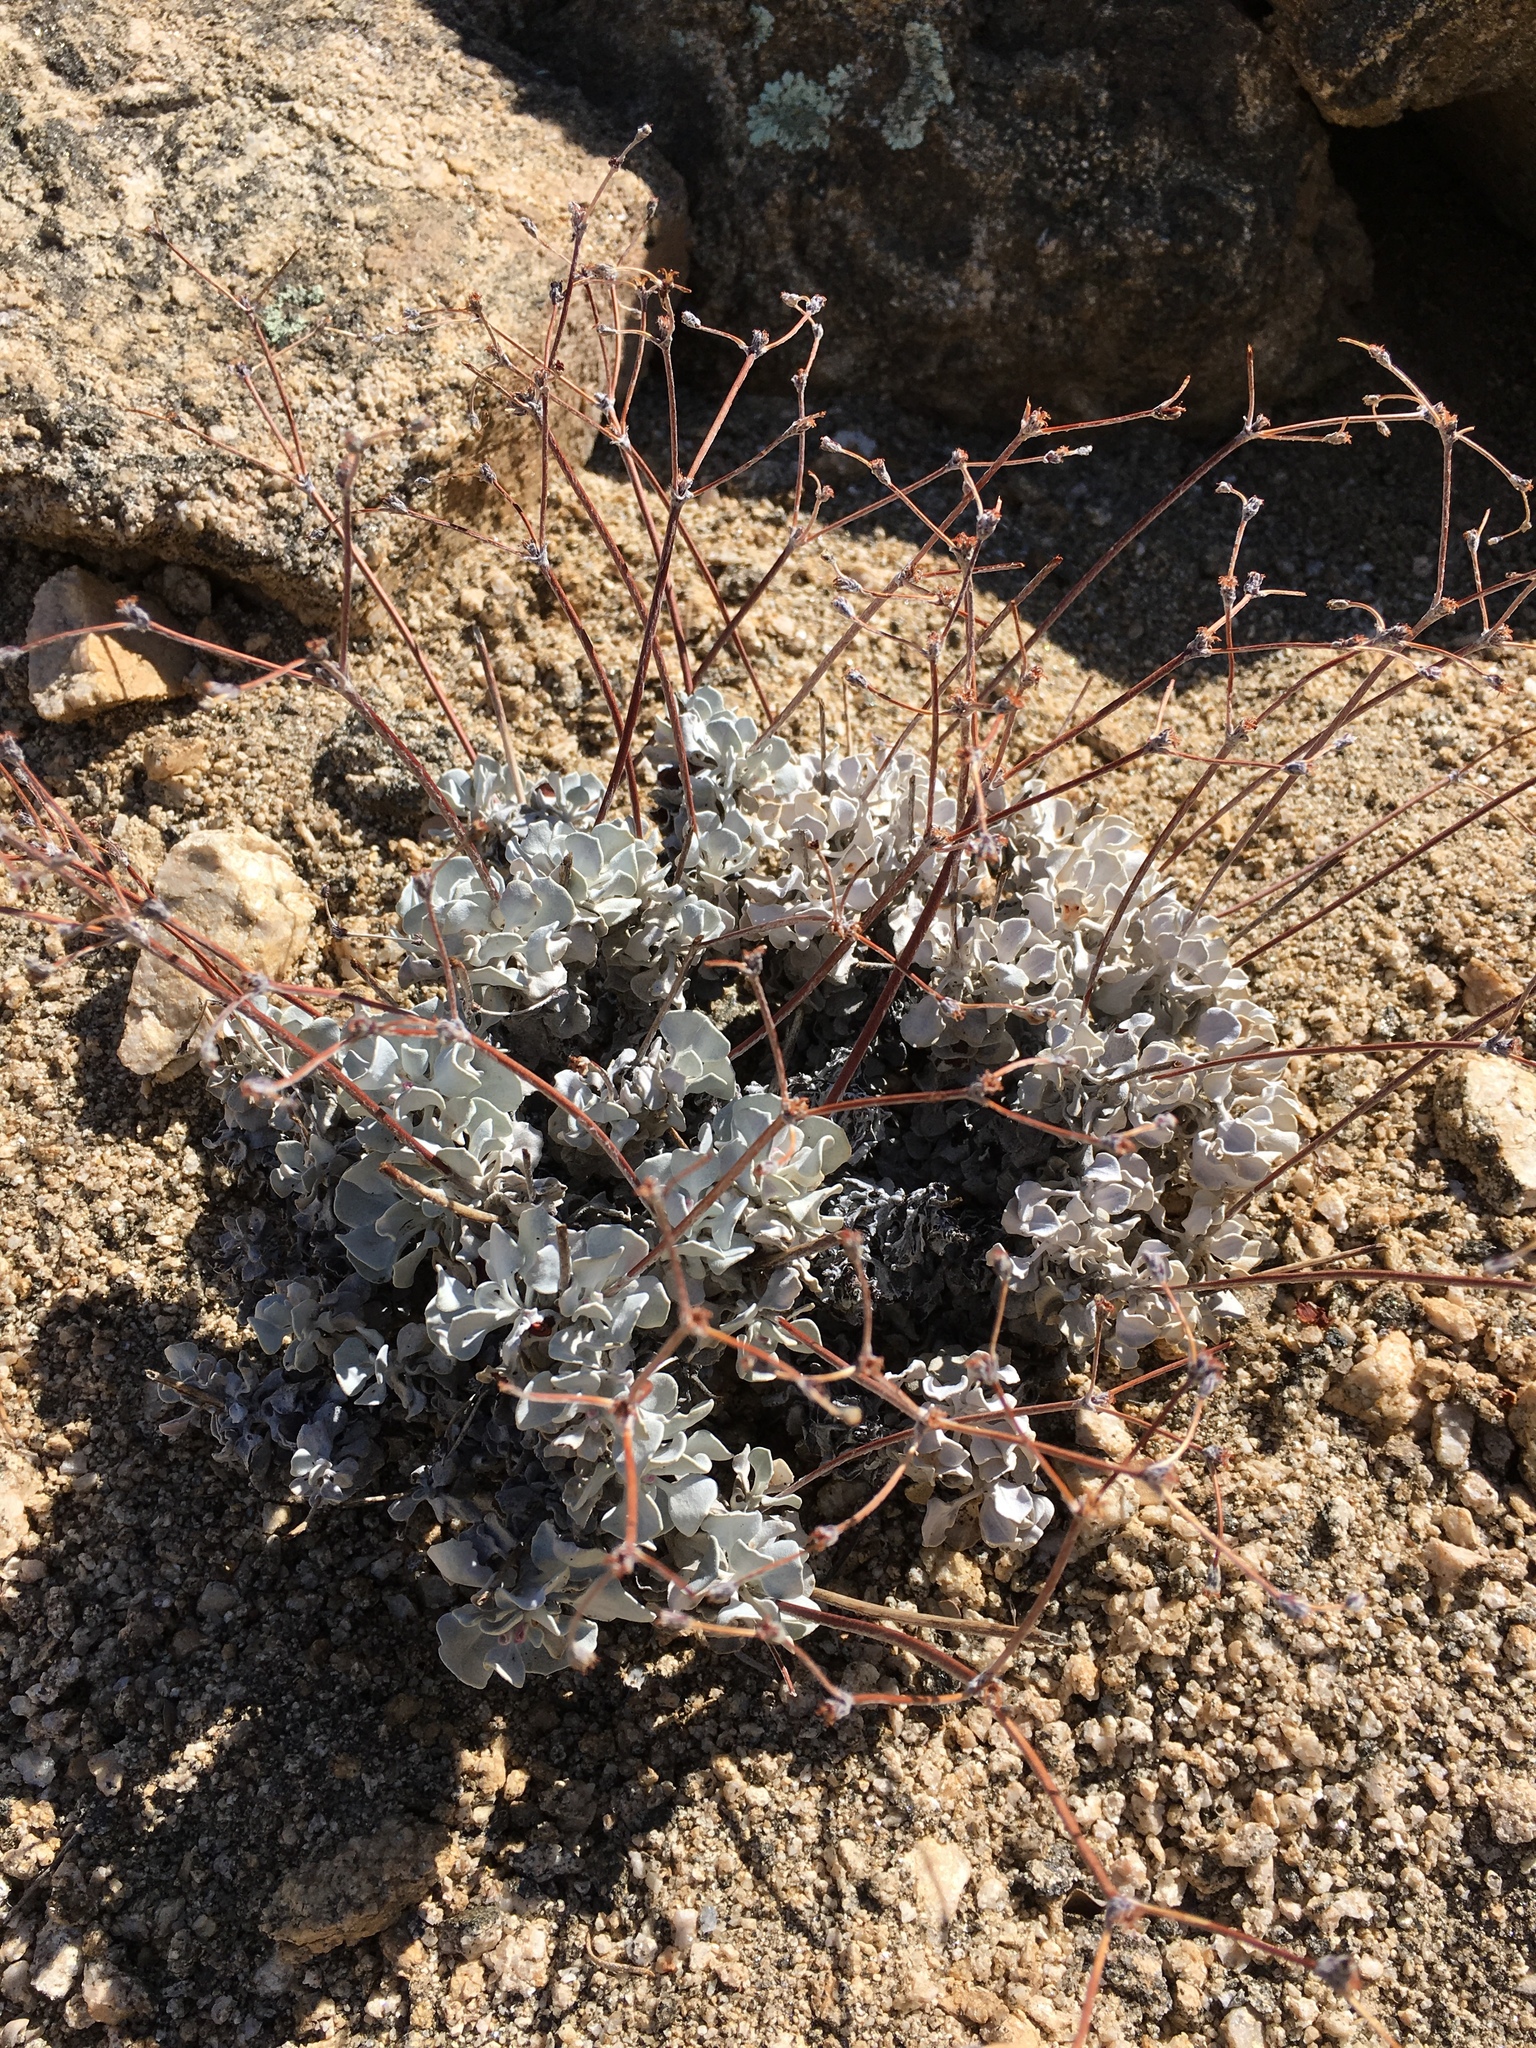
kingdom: Plantae
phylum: Tracheophyta
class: Magnoliopsida
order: Caryophyllales
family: Polygonaceae
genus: Eriogonum
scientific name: Eriogonum saxatile
